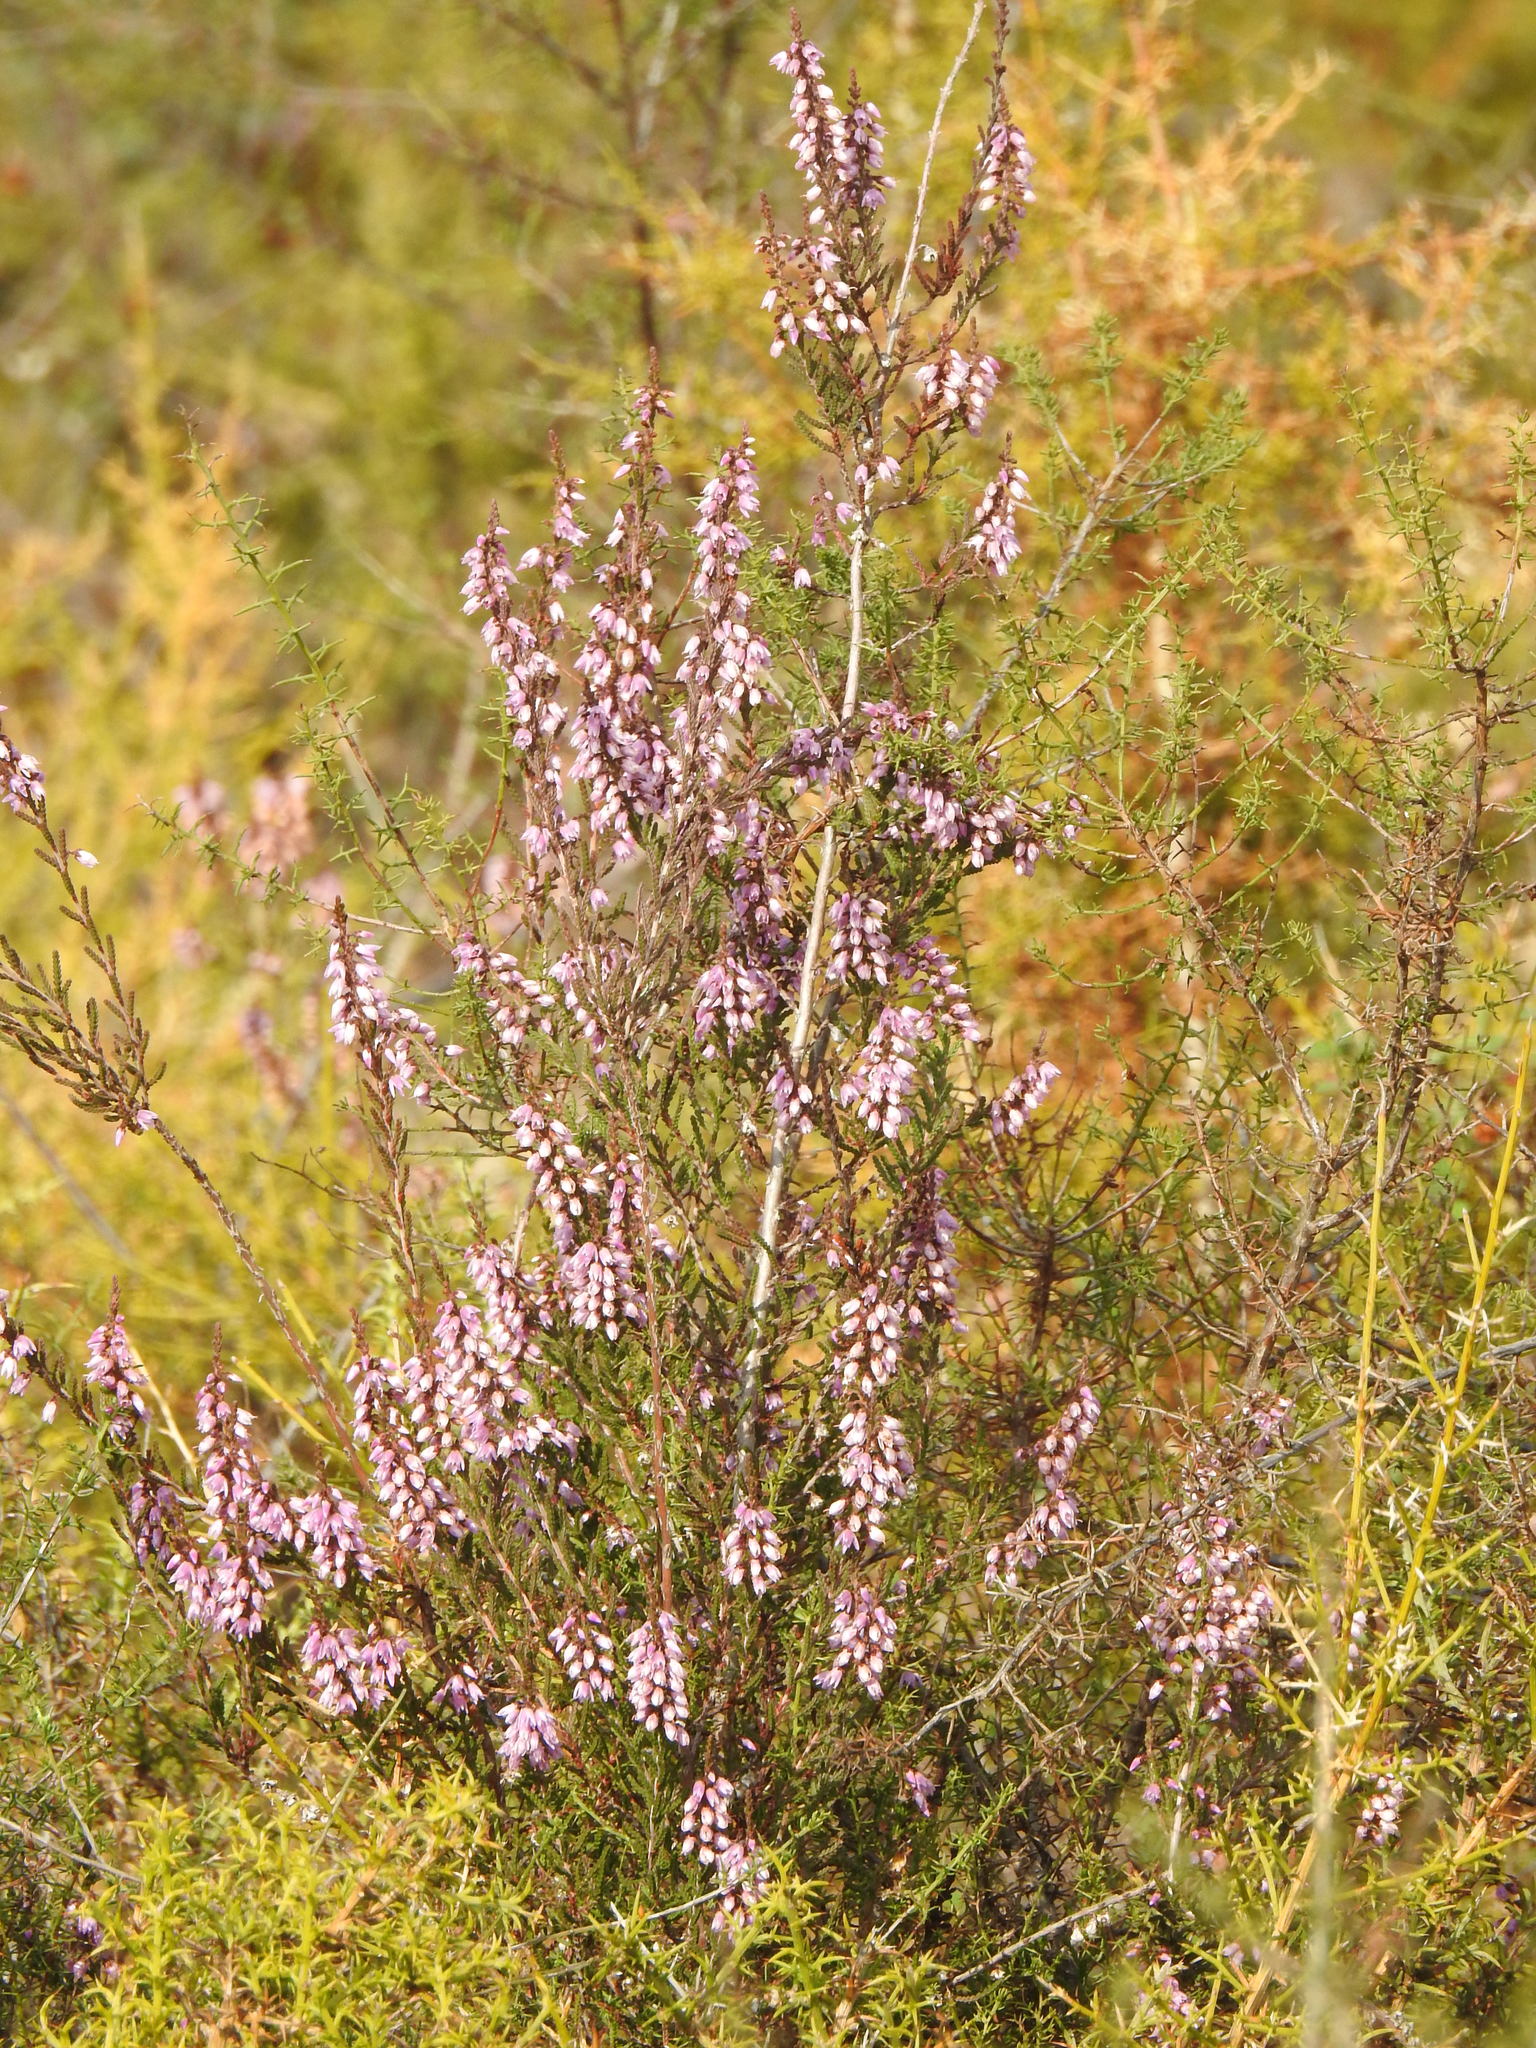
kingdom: Plantae
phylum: Tracheophyta
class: Magnoliopsida
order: Ericales
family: Ericaceae
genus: Calluna
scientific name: Calluna vulgaris
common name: Heather
